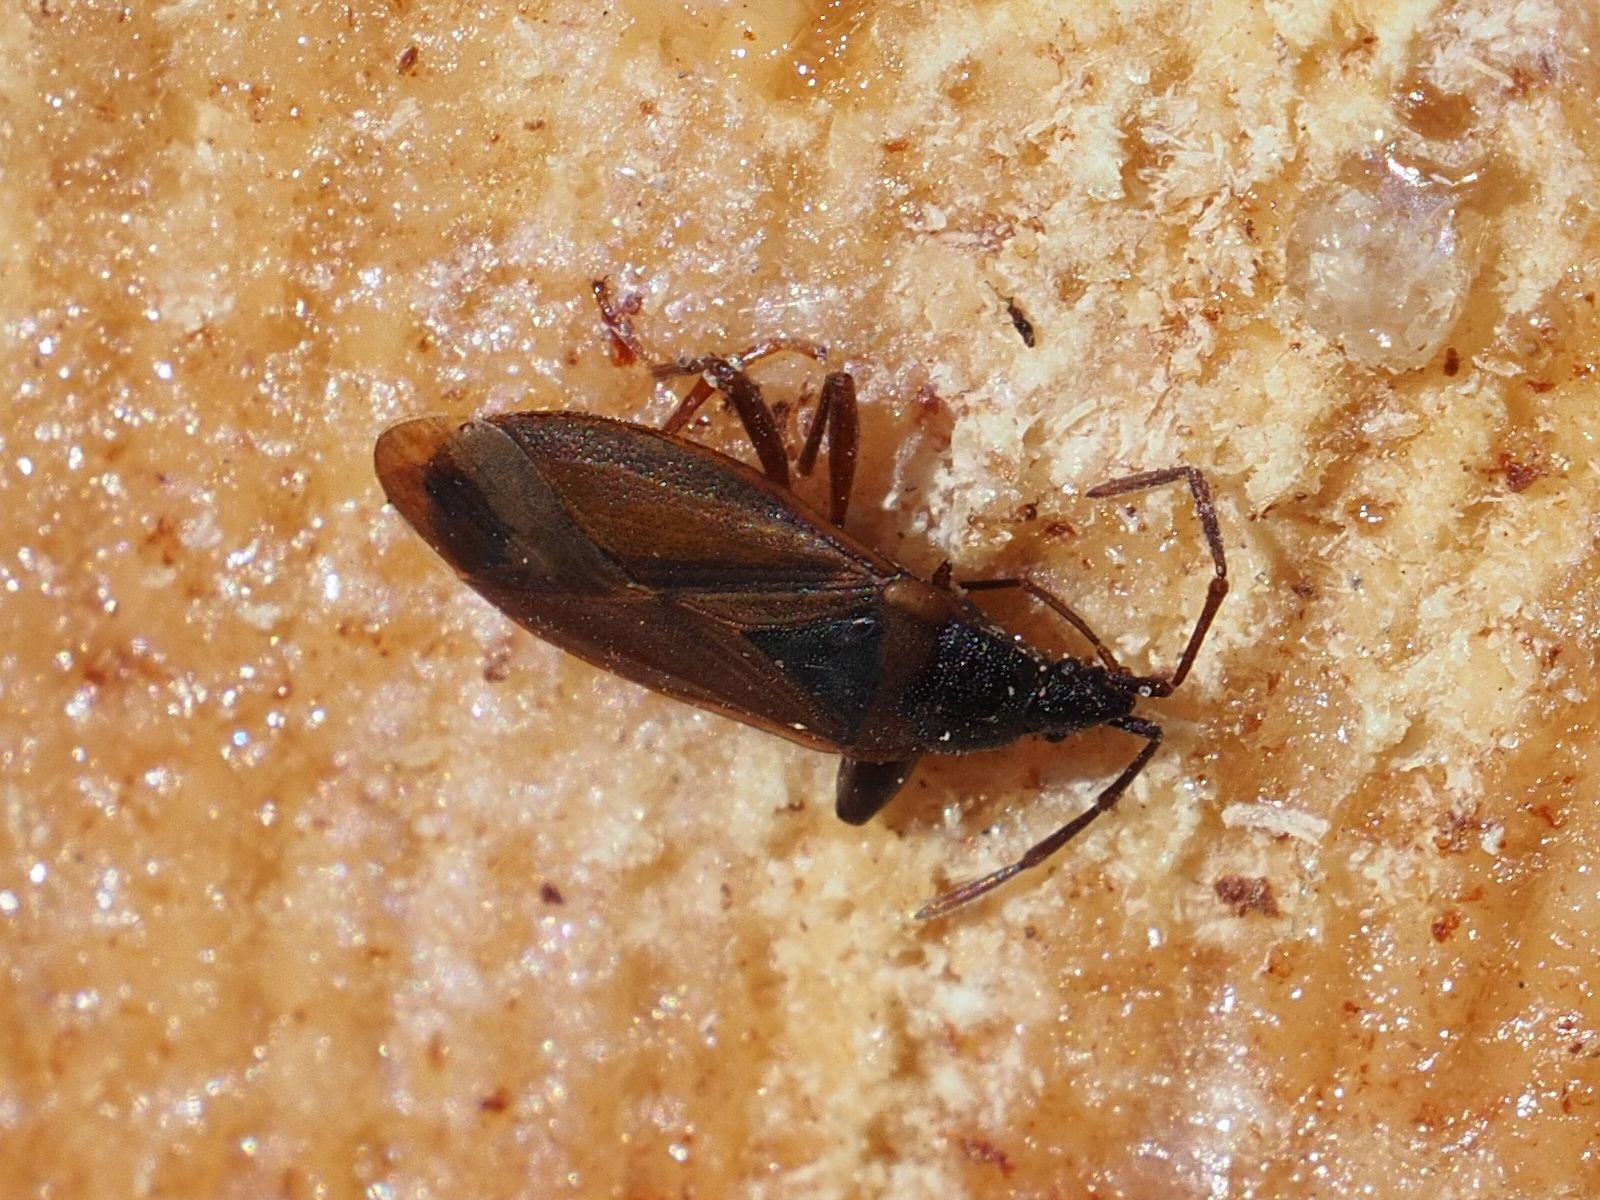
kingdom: Animalia
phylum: Arthropoda
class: Insecta
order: Hemiptera
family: Rhyparochromidae
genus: Gastrodes
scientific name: Gastrodes grossipes
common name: Pine cone bug
